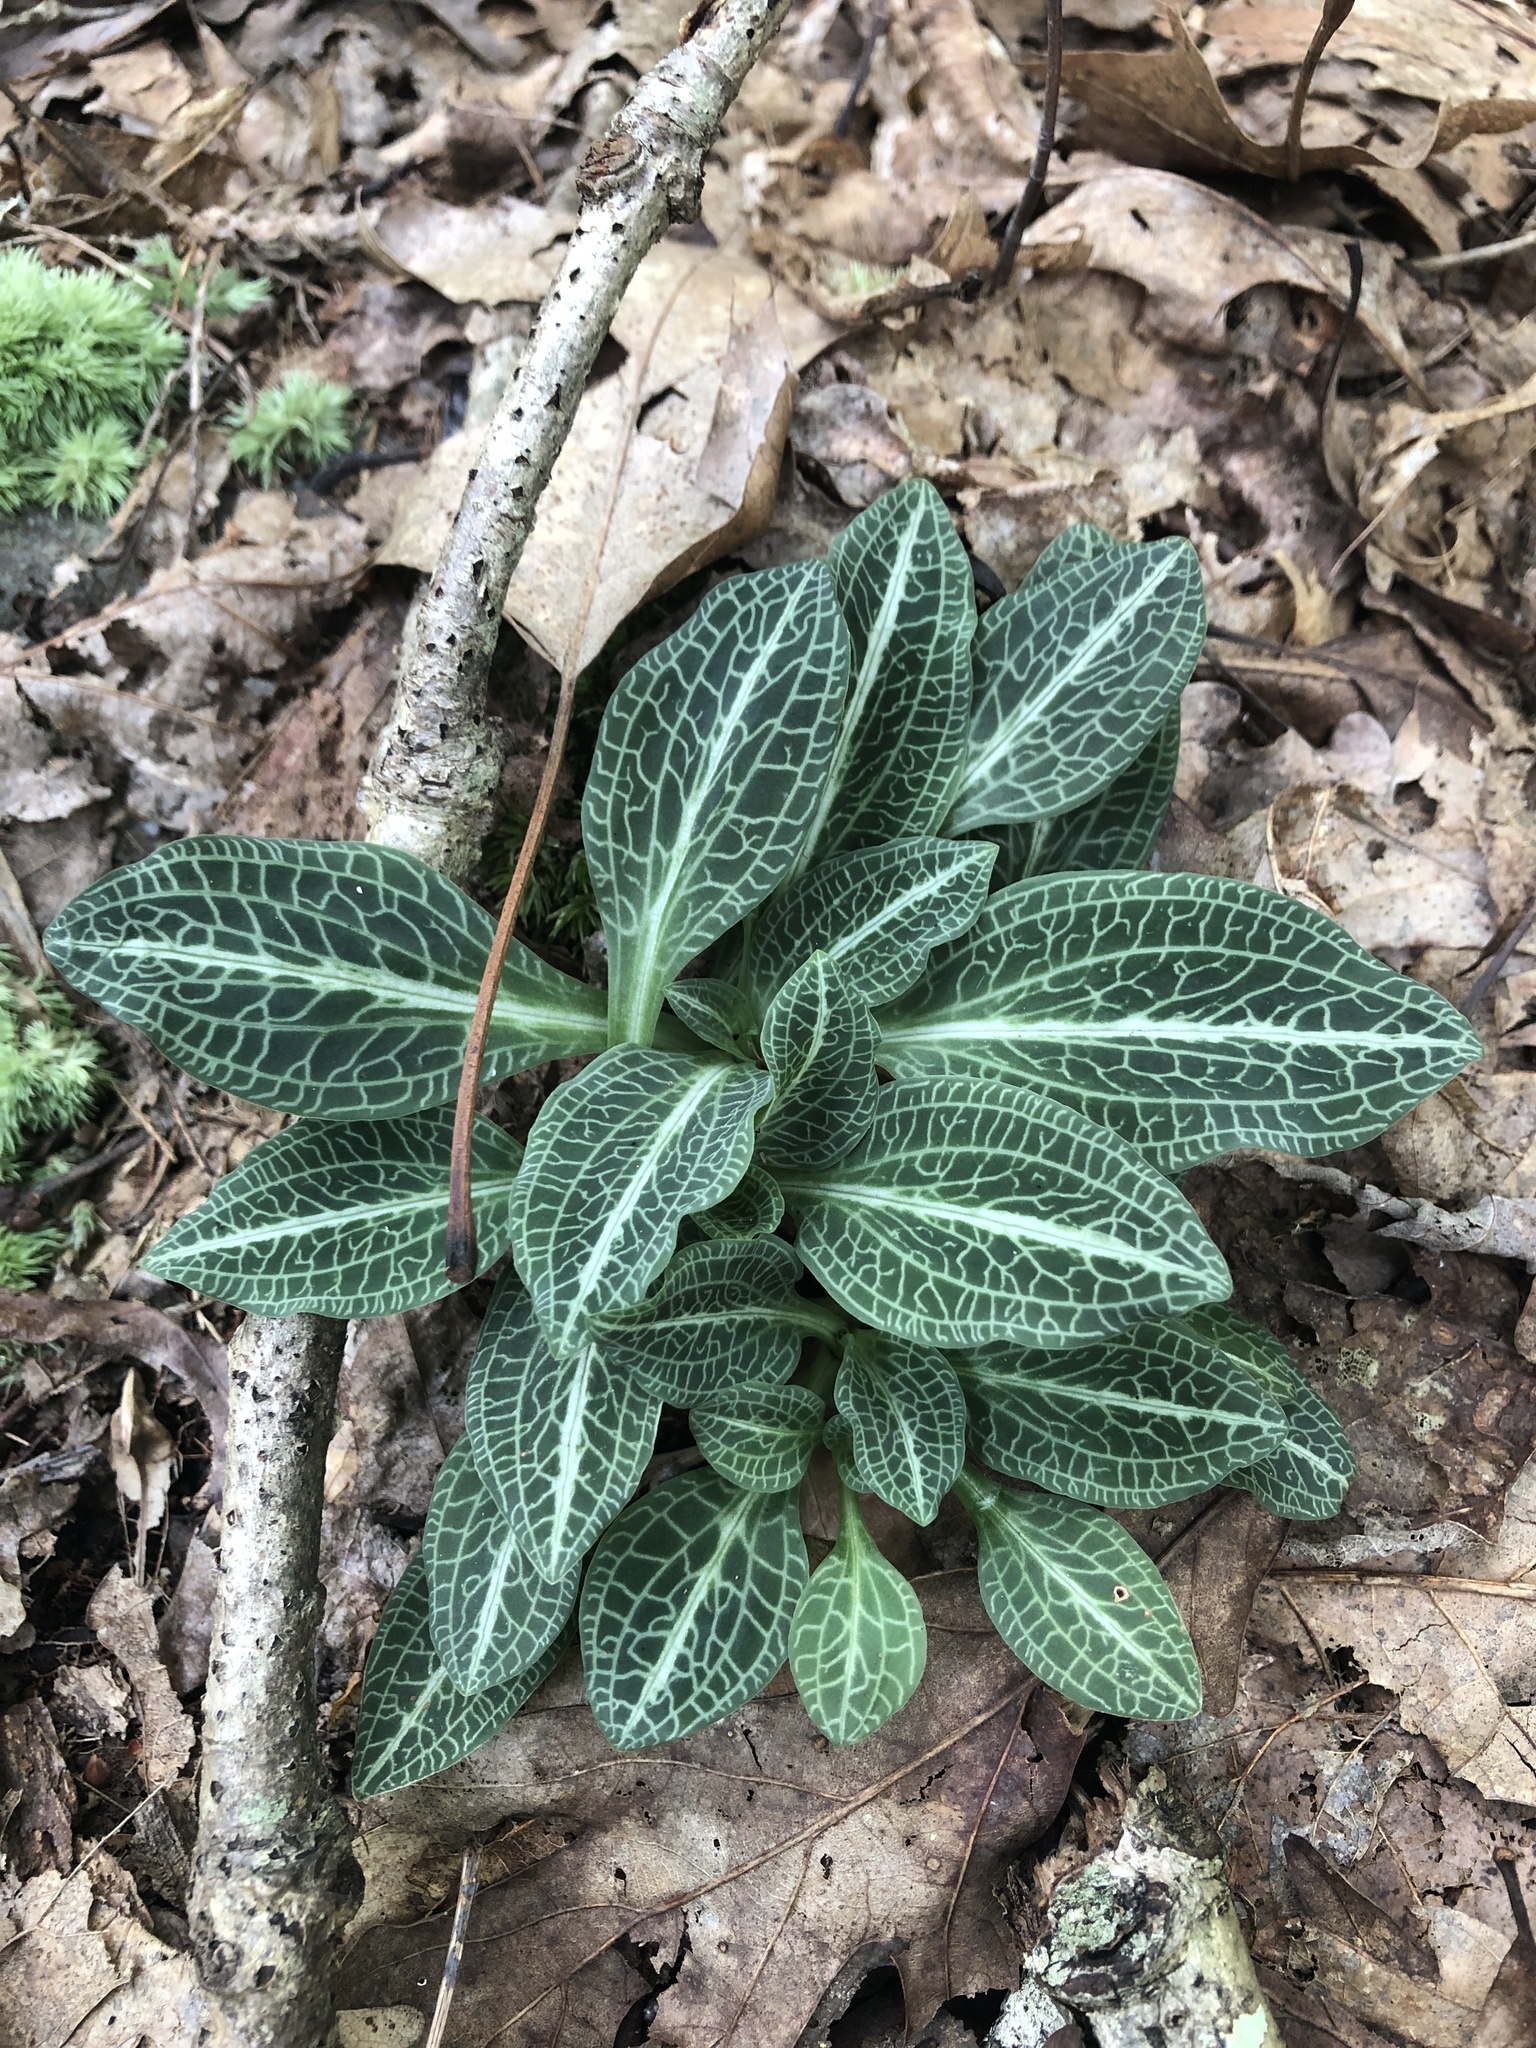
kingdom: Plantae
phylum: Tracheophyta
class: Liliopsida
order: Asparagales
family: Orchidaceae
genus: Goodyera
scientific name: Goodyera pubescens
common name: Downy rattlesnake-plantain
